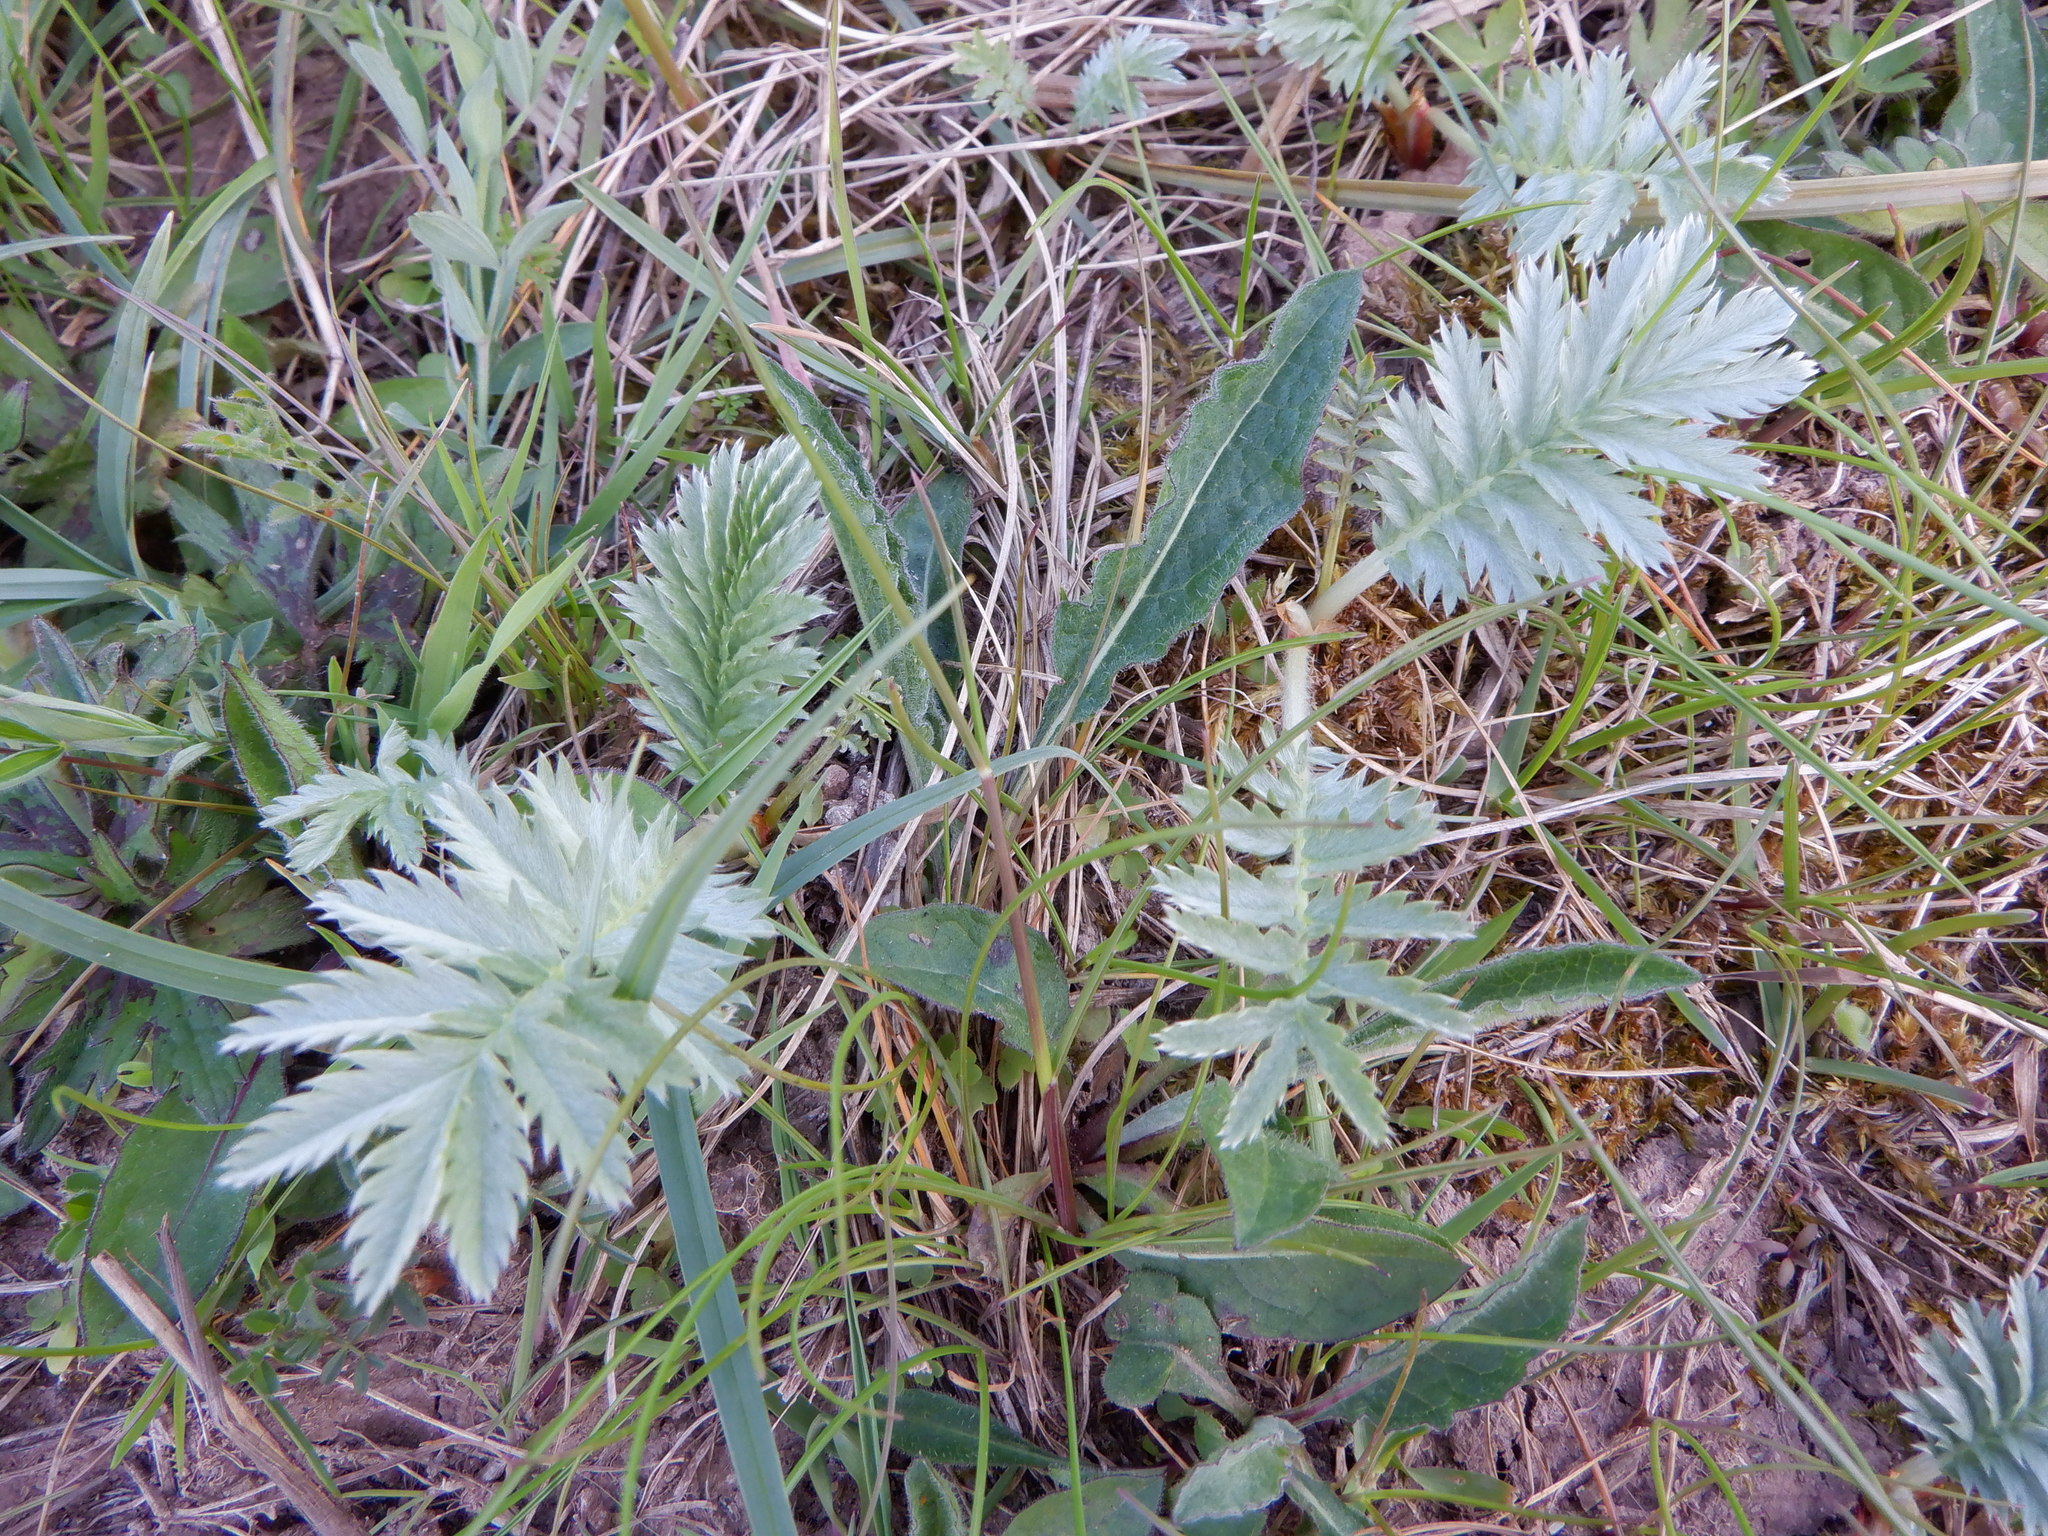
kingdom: Plantae
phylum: Tracheophyta
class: Magnoliopsida
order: Rosales
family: Rosaceae
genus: Argentina
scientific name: Argentina anserina
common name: Common silverweed
